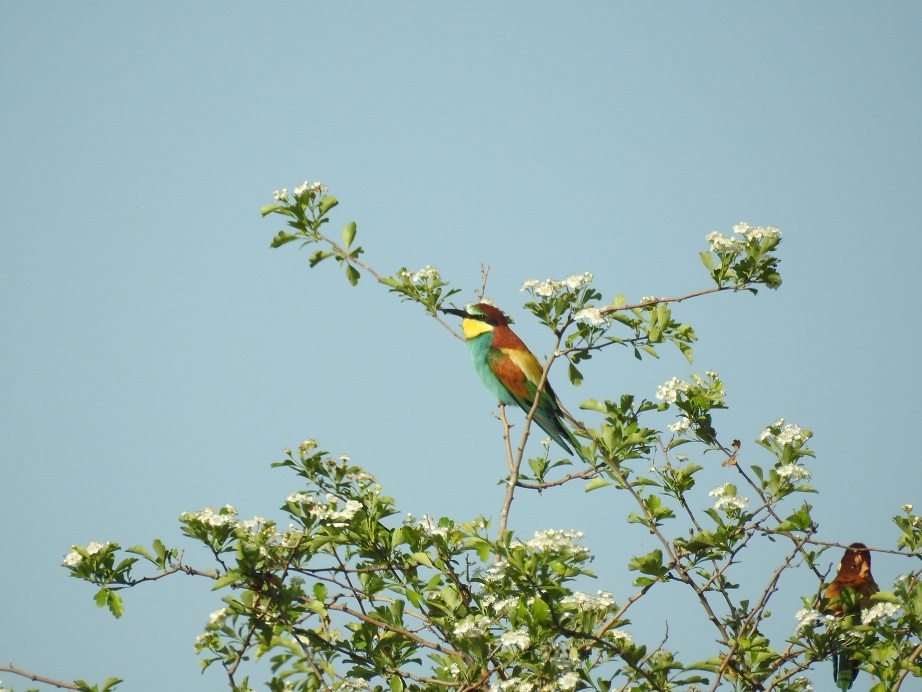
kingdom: Animalia
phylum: Chordata
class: Aves
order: Coraciiformes
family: Meropidae
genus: Merops
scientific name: Merops apiaster
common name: European bee-eater
